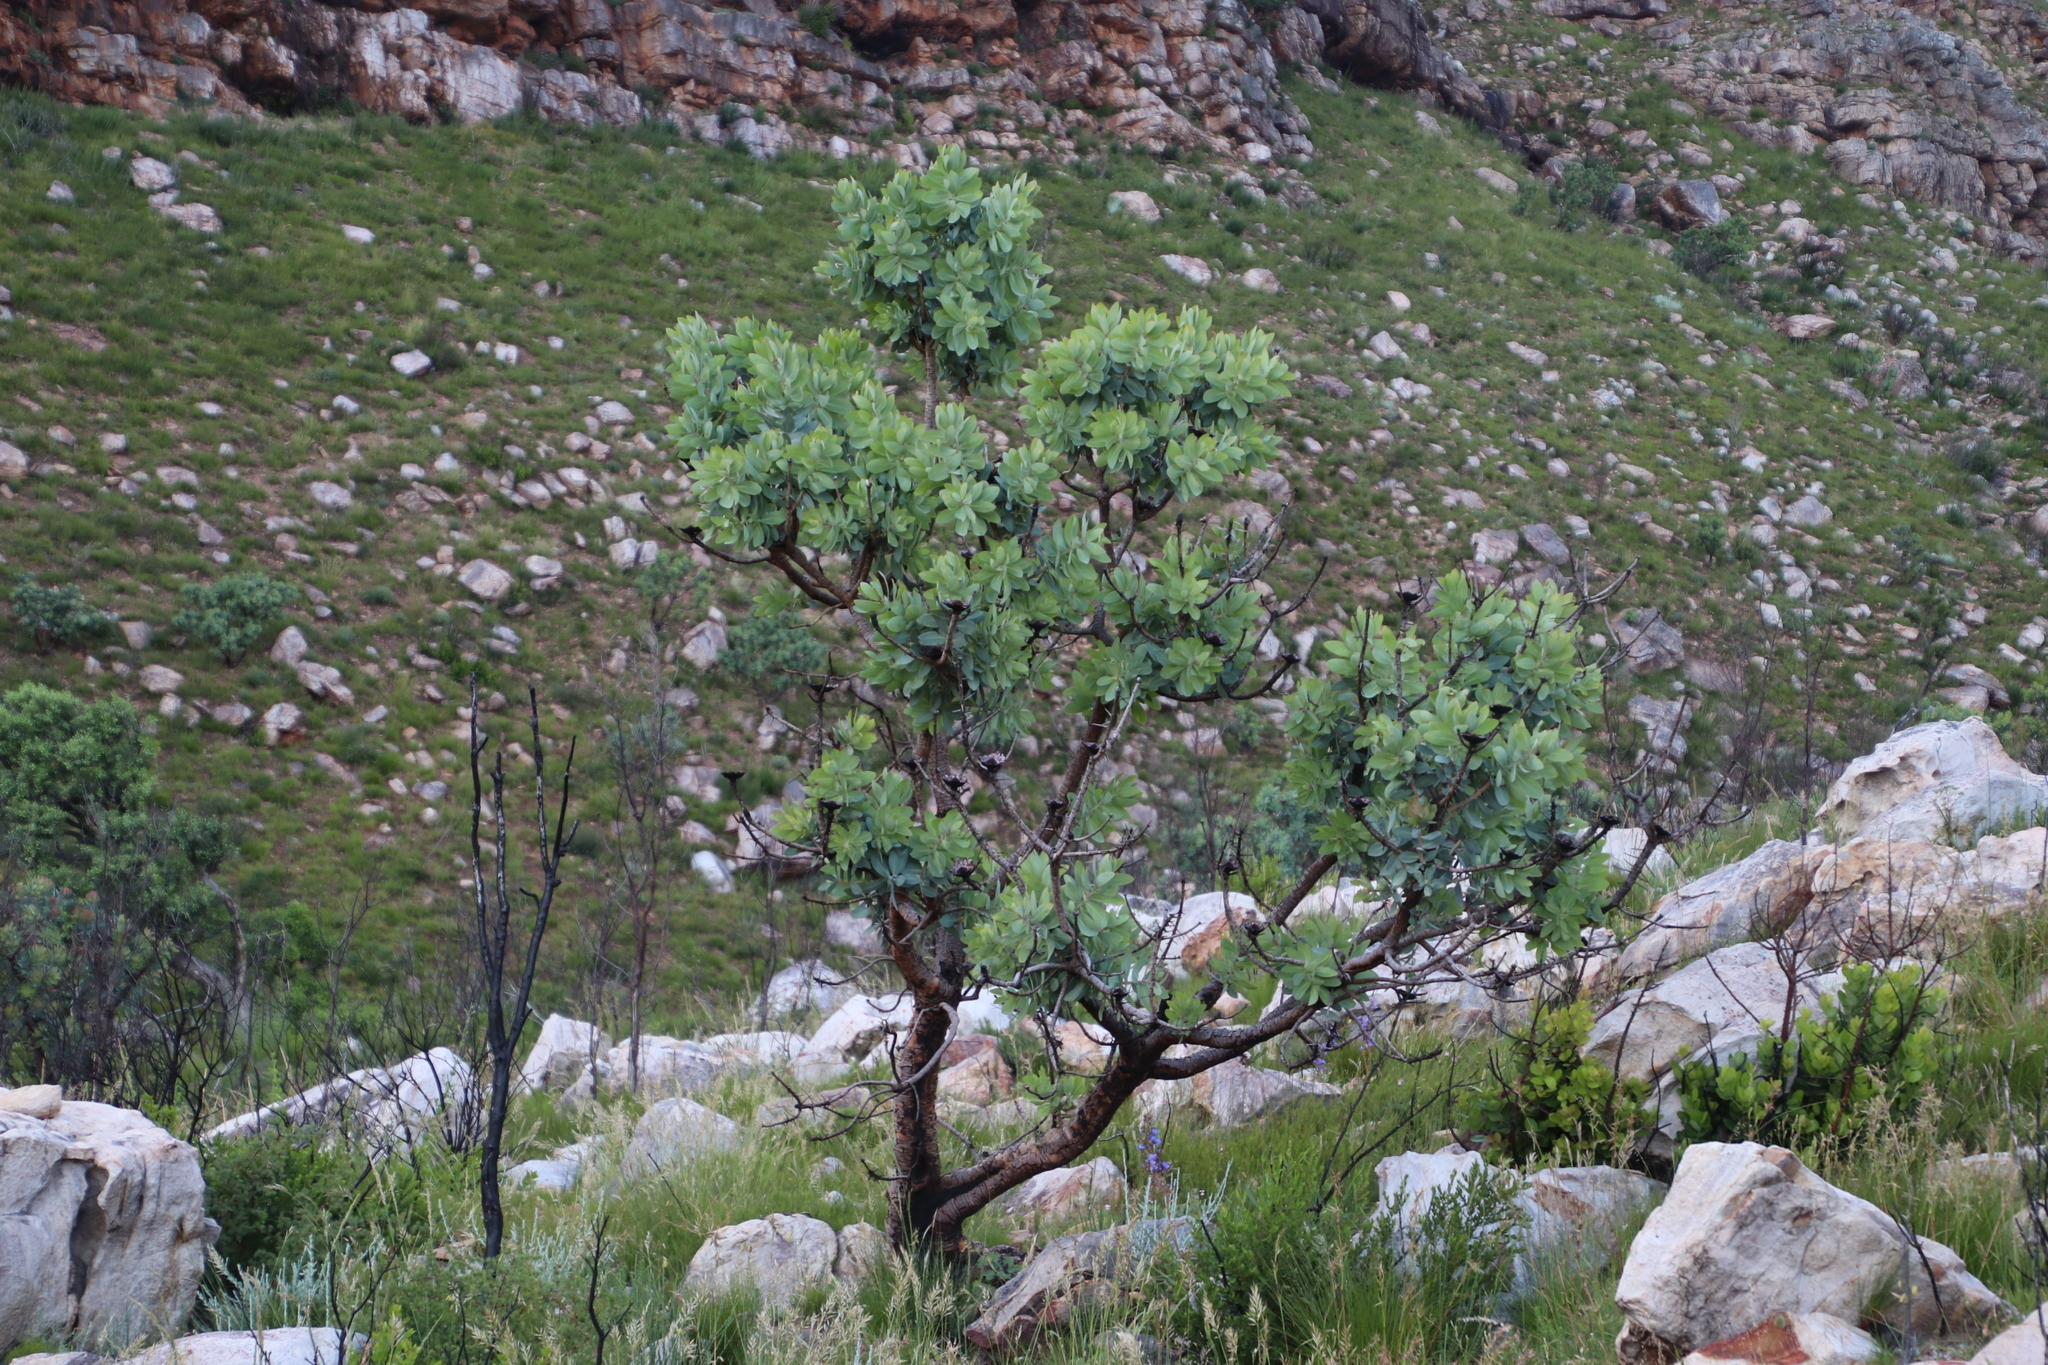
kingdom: Plantae
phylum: Tracheophyta
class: Magnoliopsida
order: Proteales
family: Proteaceae
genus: Protea
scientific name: Protea nitida
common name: Tree protea
